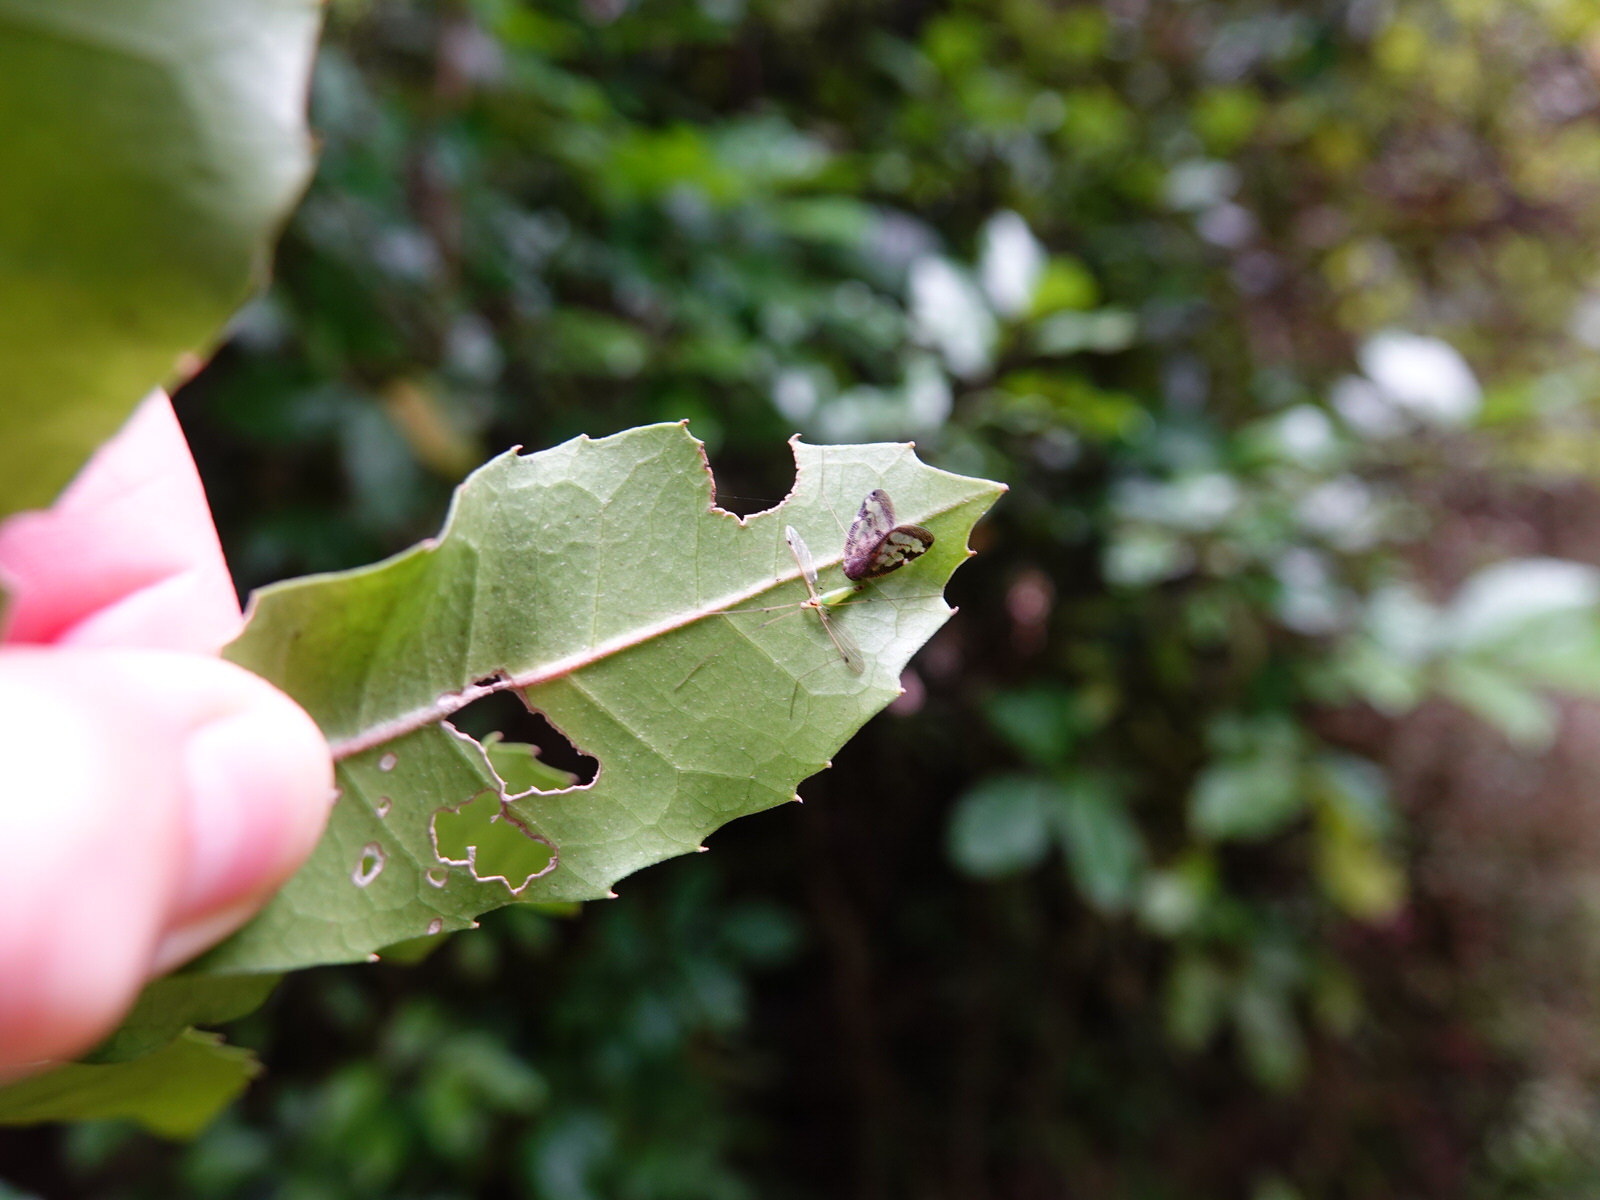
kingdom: Animalia
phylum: Arthropoda
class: Insecta
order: Hemiptera
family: Ricaniidae
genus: Scolypopa
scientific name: Scolypopa australis
